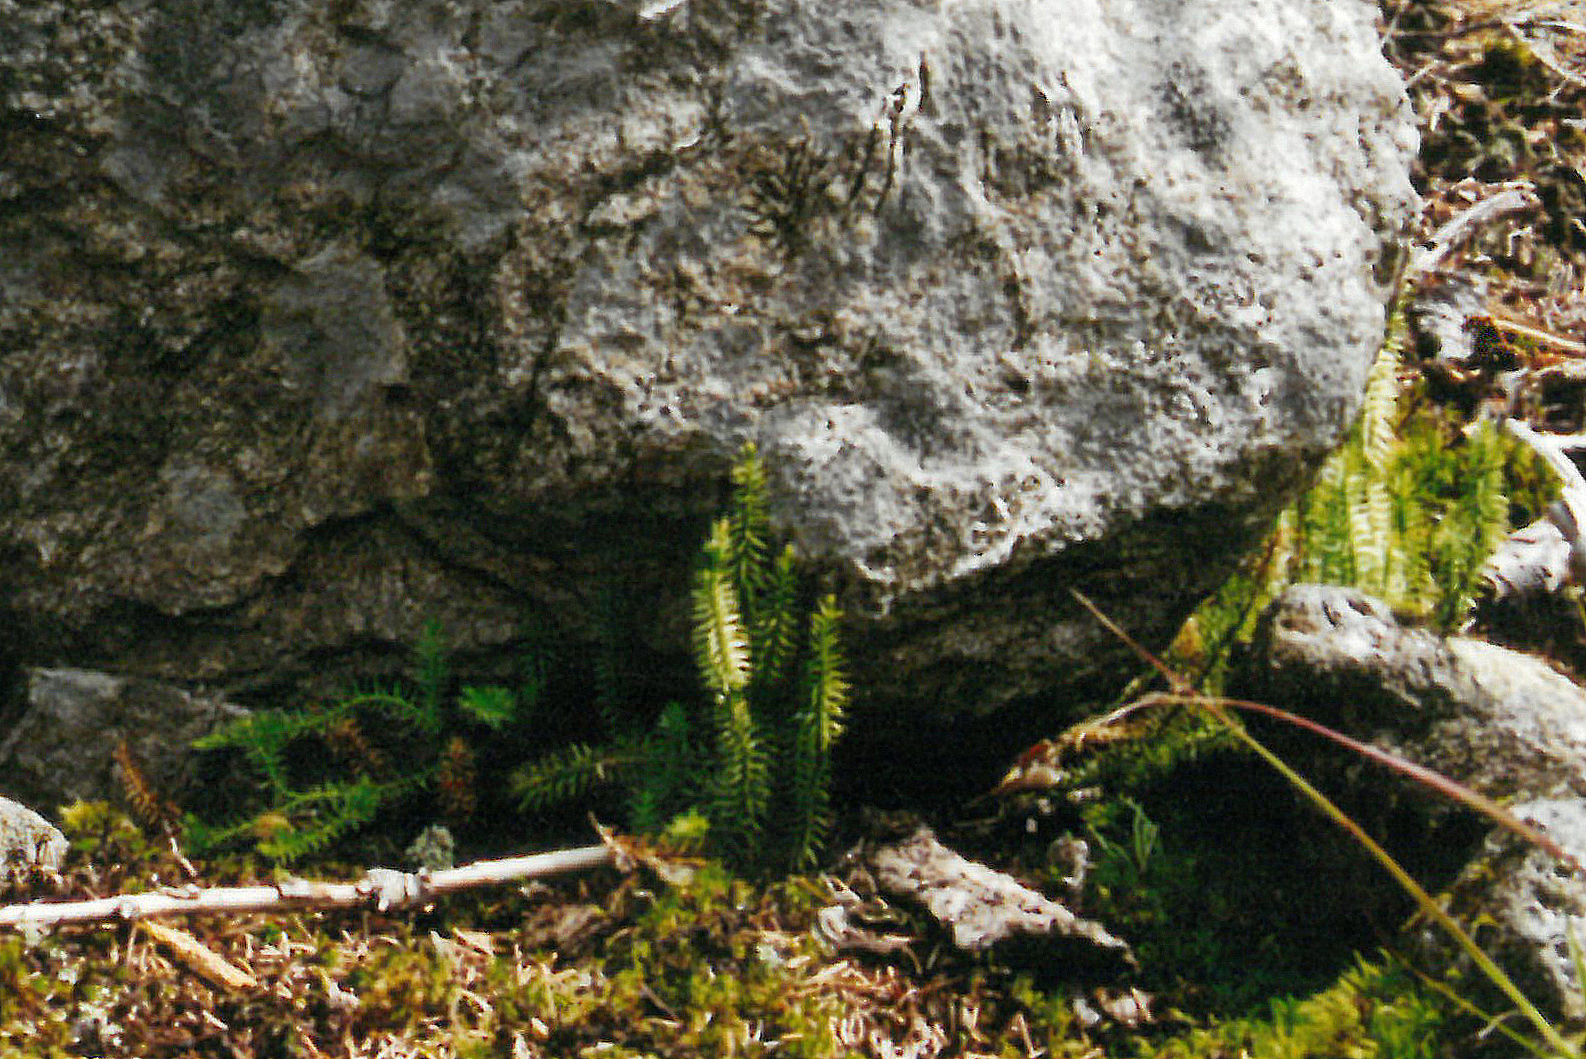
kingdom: Plantae
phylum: Tracheophyta
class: Lycopodiopsida
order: Lycopodiales
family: Lycopodiaceae
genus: Spinulum
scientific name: Spinulum annotinum
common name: Interrupted club-moss
